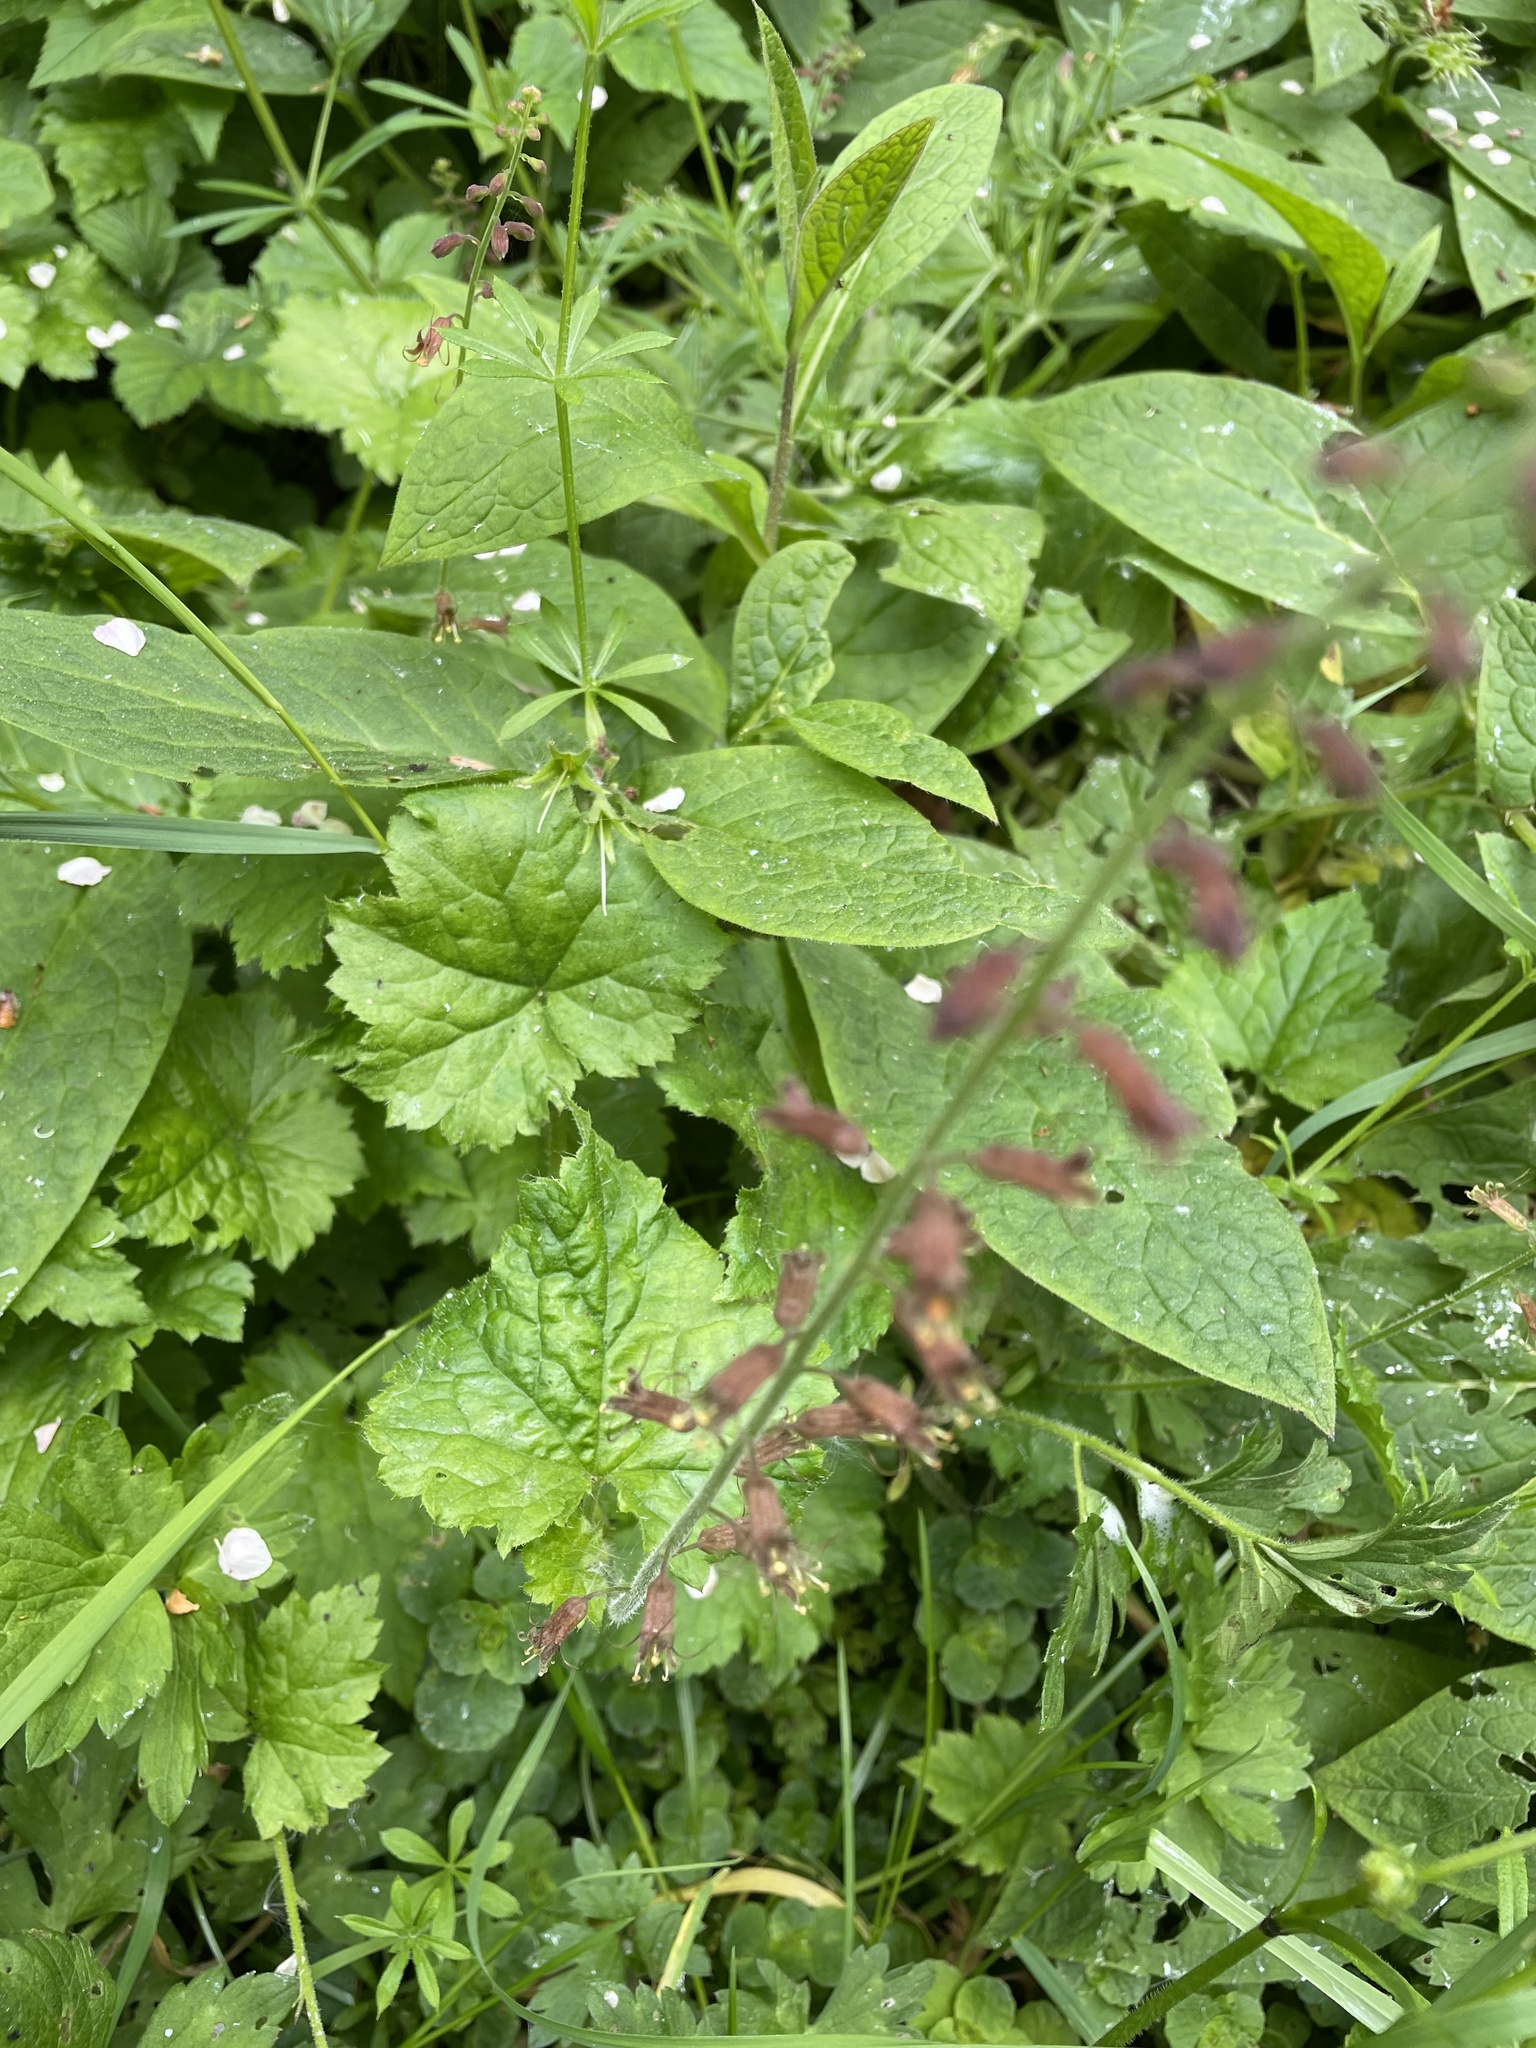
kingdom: Plantae
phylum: Tracheophyta
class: Magnoliopsida
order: Saxifragales
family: Saxifragaceae
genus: Tolmiea
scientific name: Tolmiea menziesii
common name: Pick-a-back-plant
